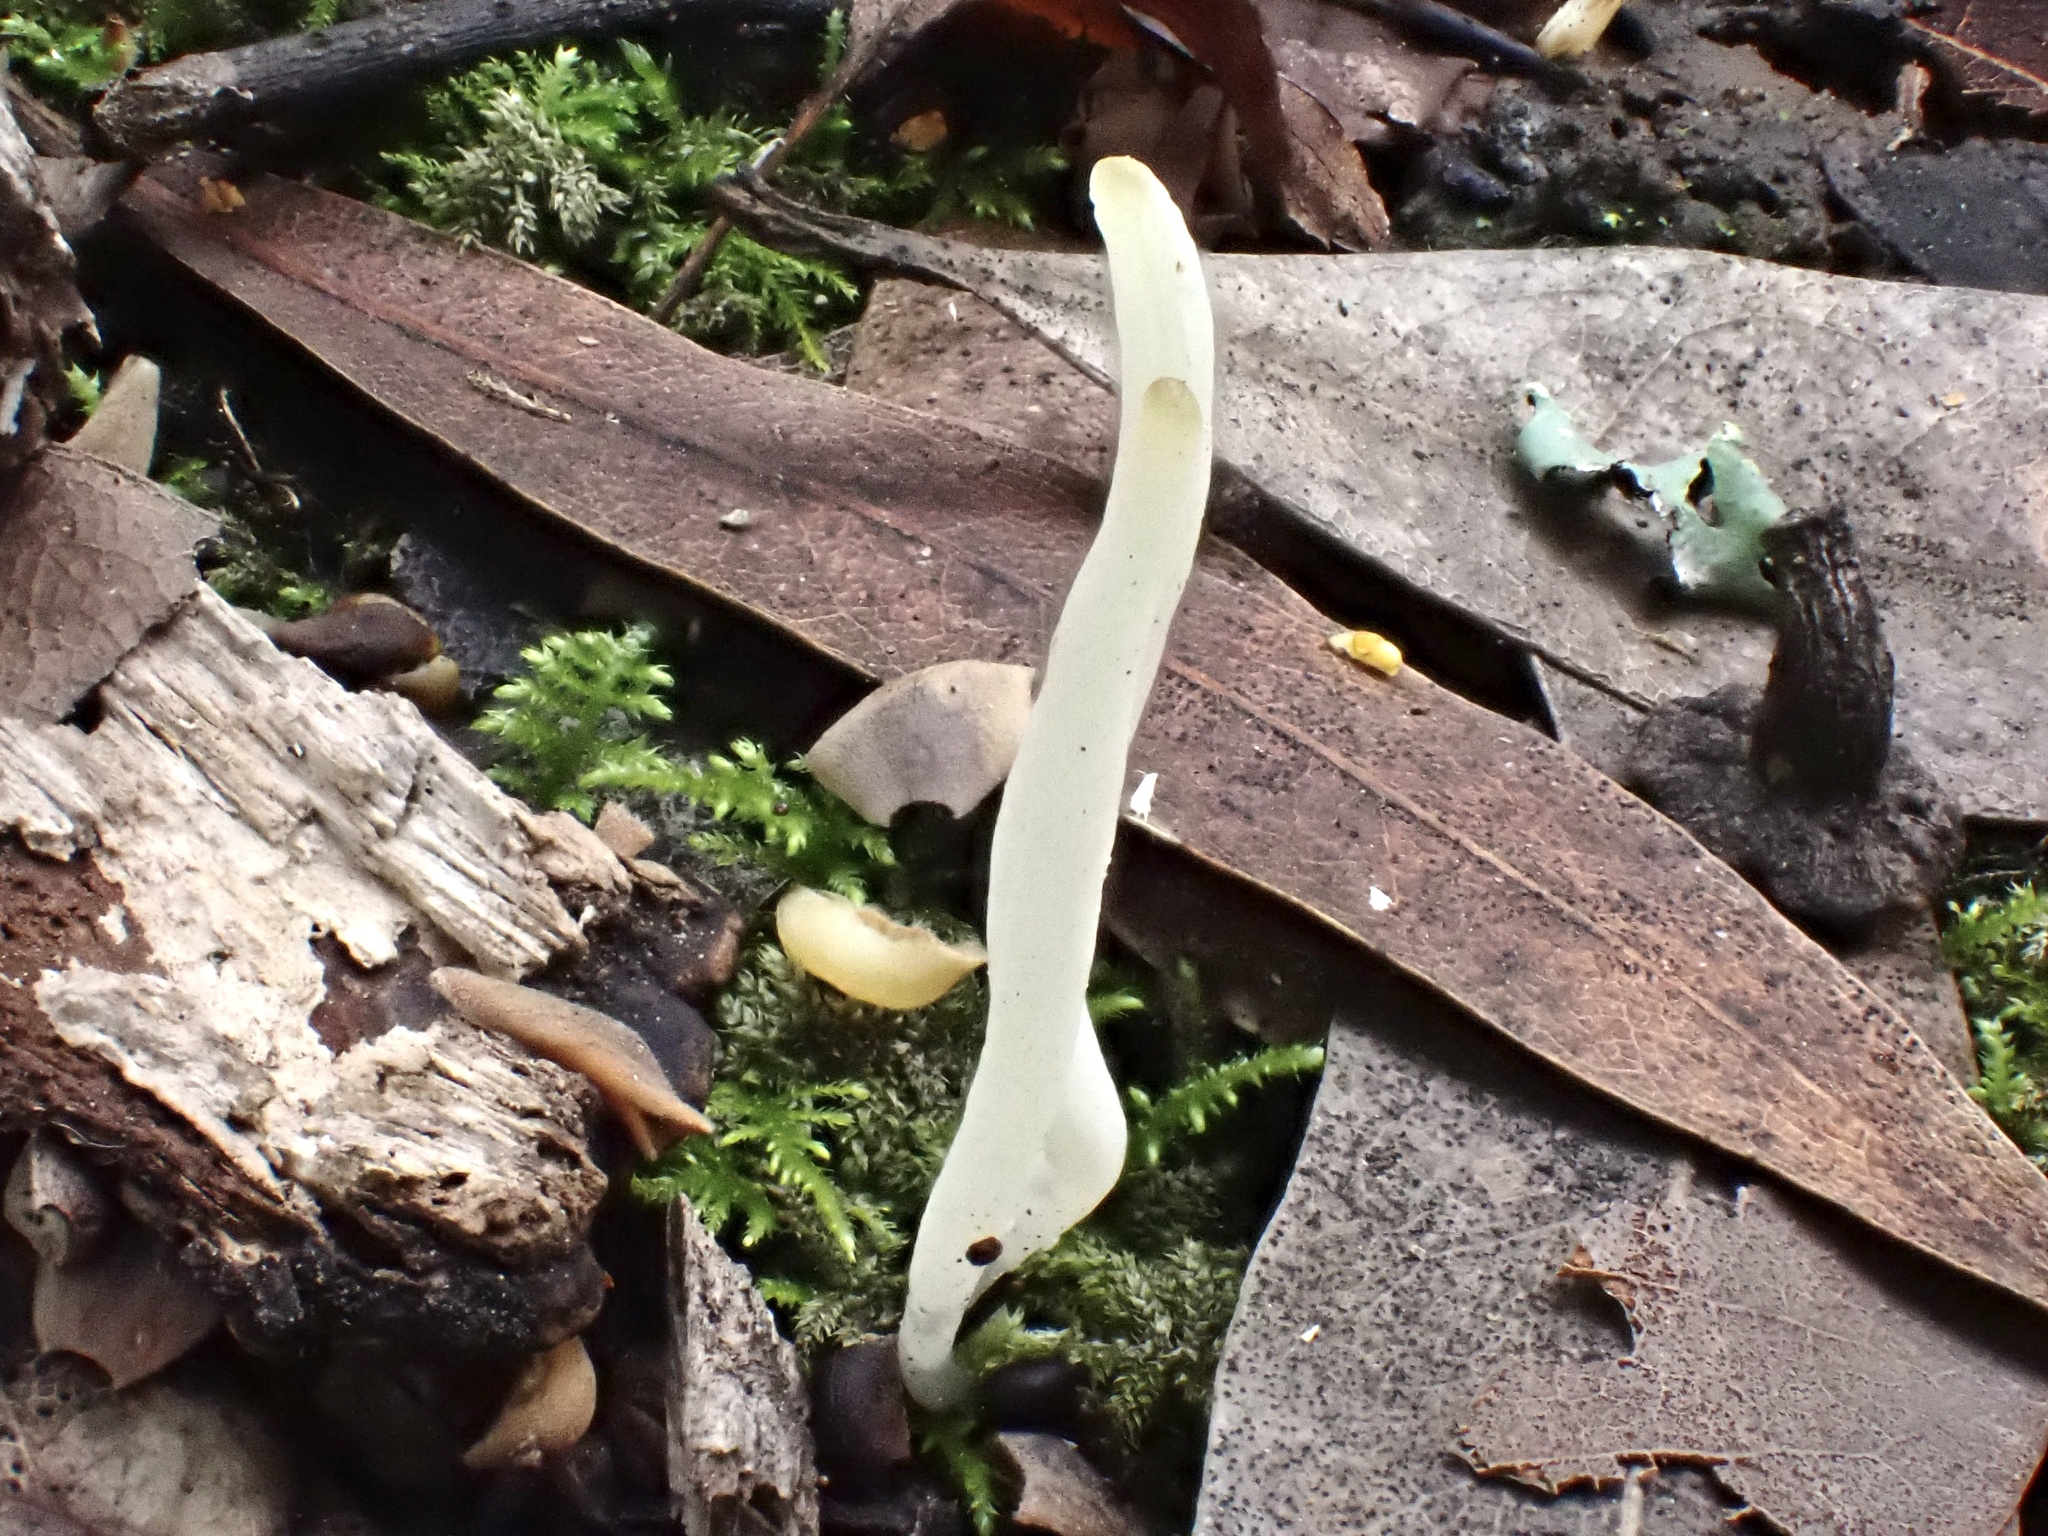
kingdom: Fungi
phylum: Basidiomycota
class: Agaricomycetes
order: Agaricales
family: Clavariaceae
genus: Clavaria
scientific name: Clavaria acuta
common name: Pointed club
